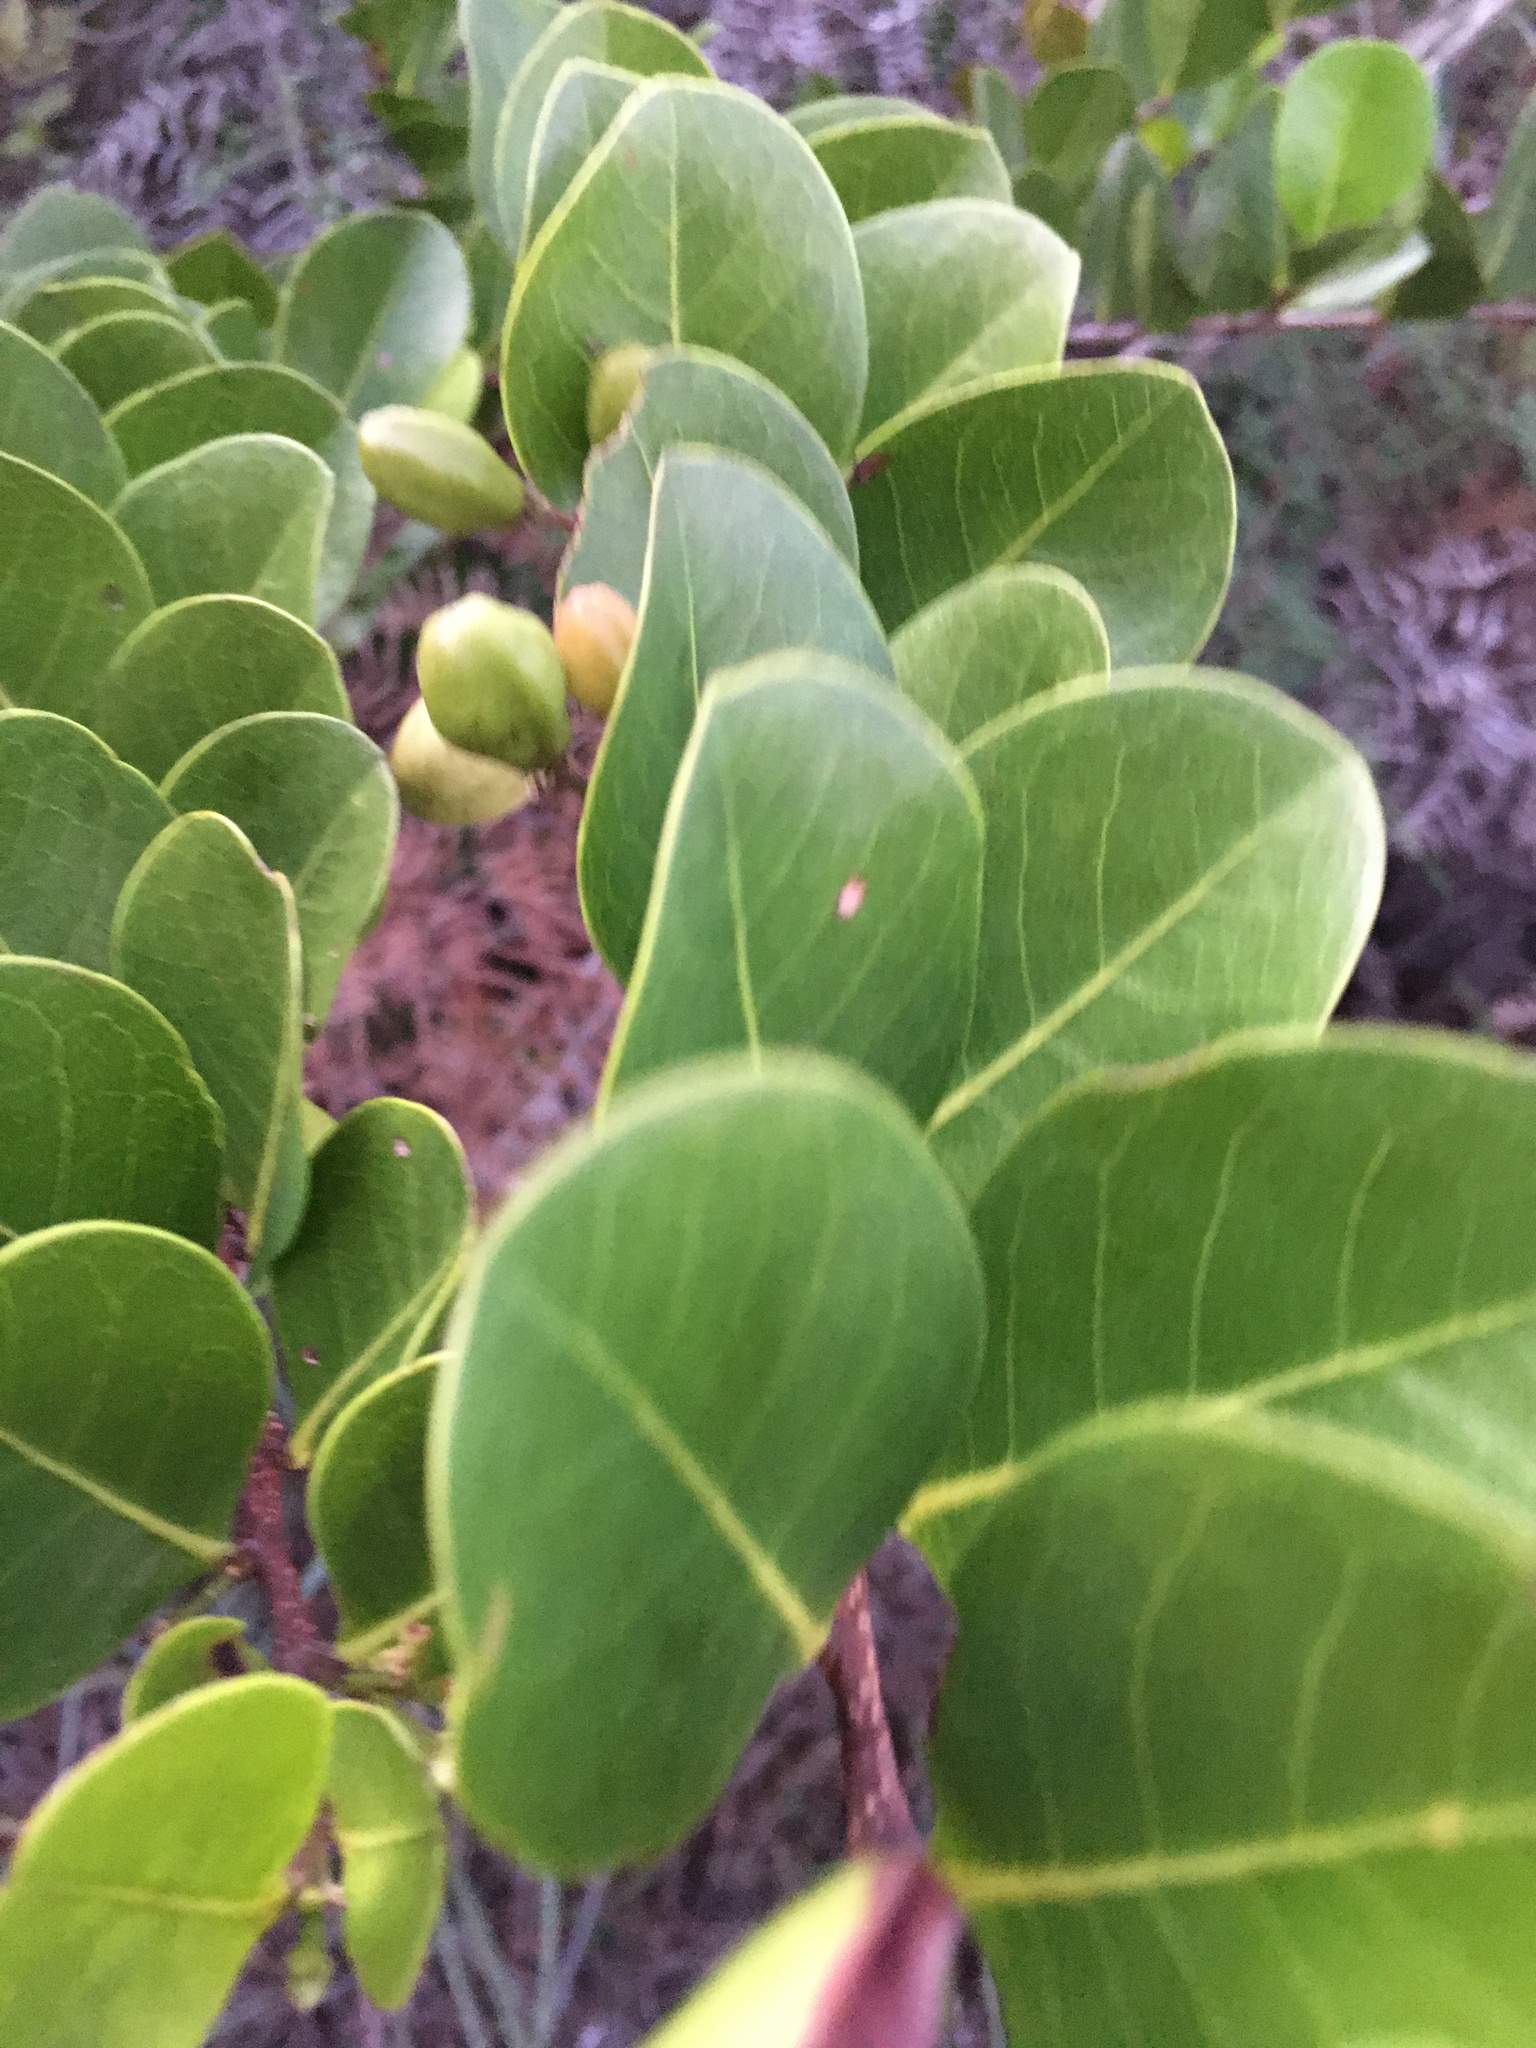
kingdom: Plantae
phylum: Tracheophyta
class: Magnoliopsida
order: Malpighiales
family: Chrysobalanaceae
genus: Chrysobalanus
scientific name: Chrysobalanus icaco
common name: Coco plum
